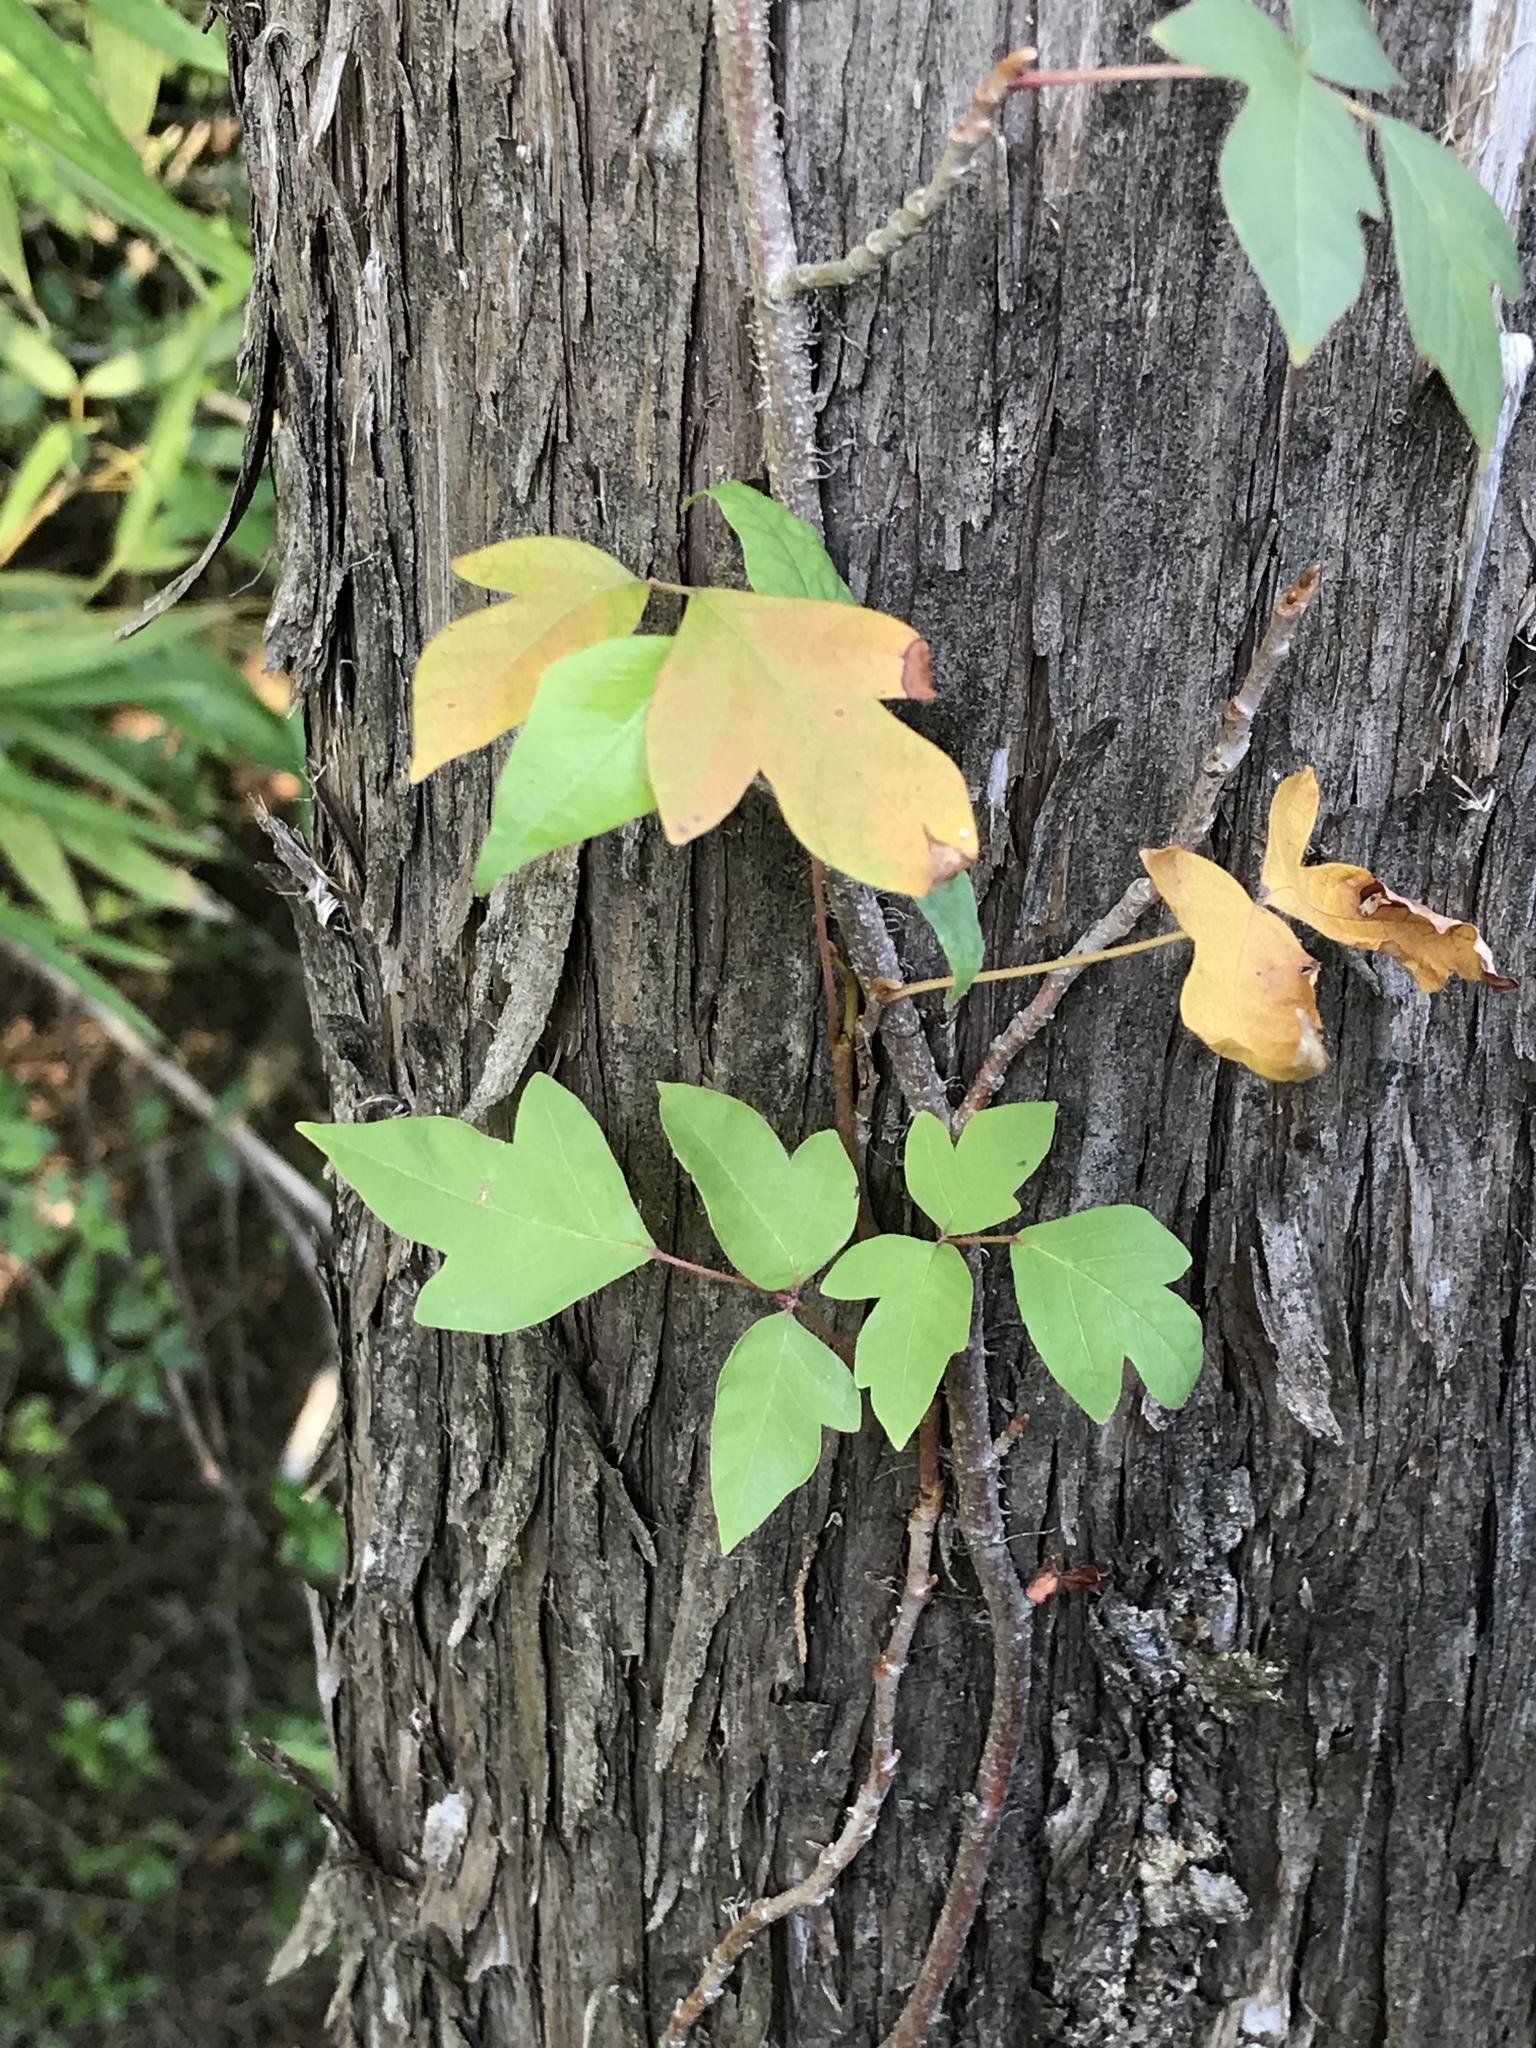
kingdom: Plantae
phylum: Tracheophyta
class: Magnoliopsida
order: Sapindales
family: Anacardiaceae
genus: Toxicodendron
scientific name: Toxicodendron radicans
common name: Poison ivy
